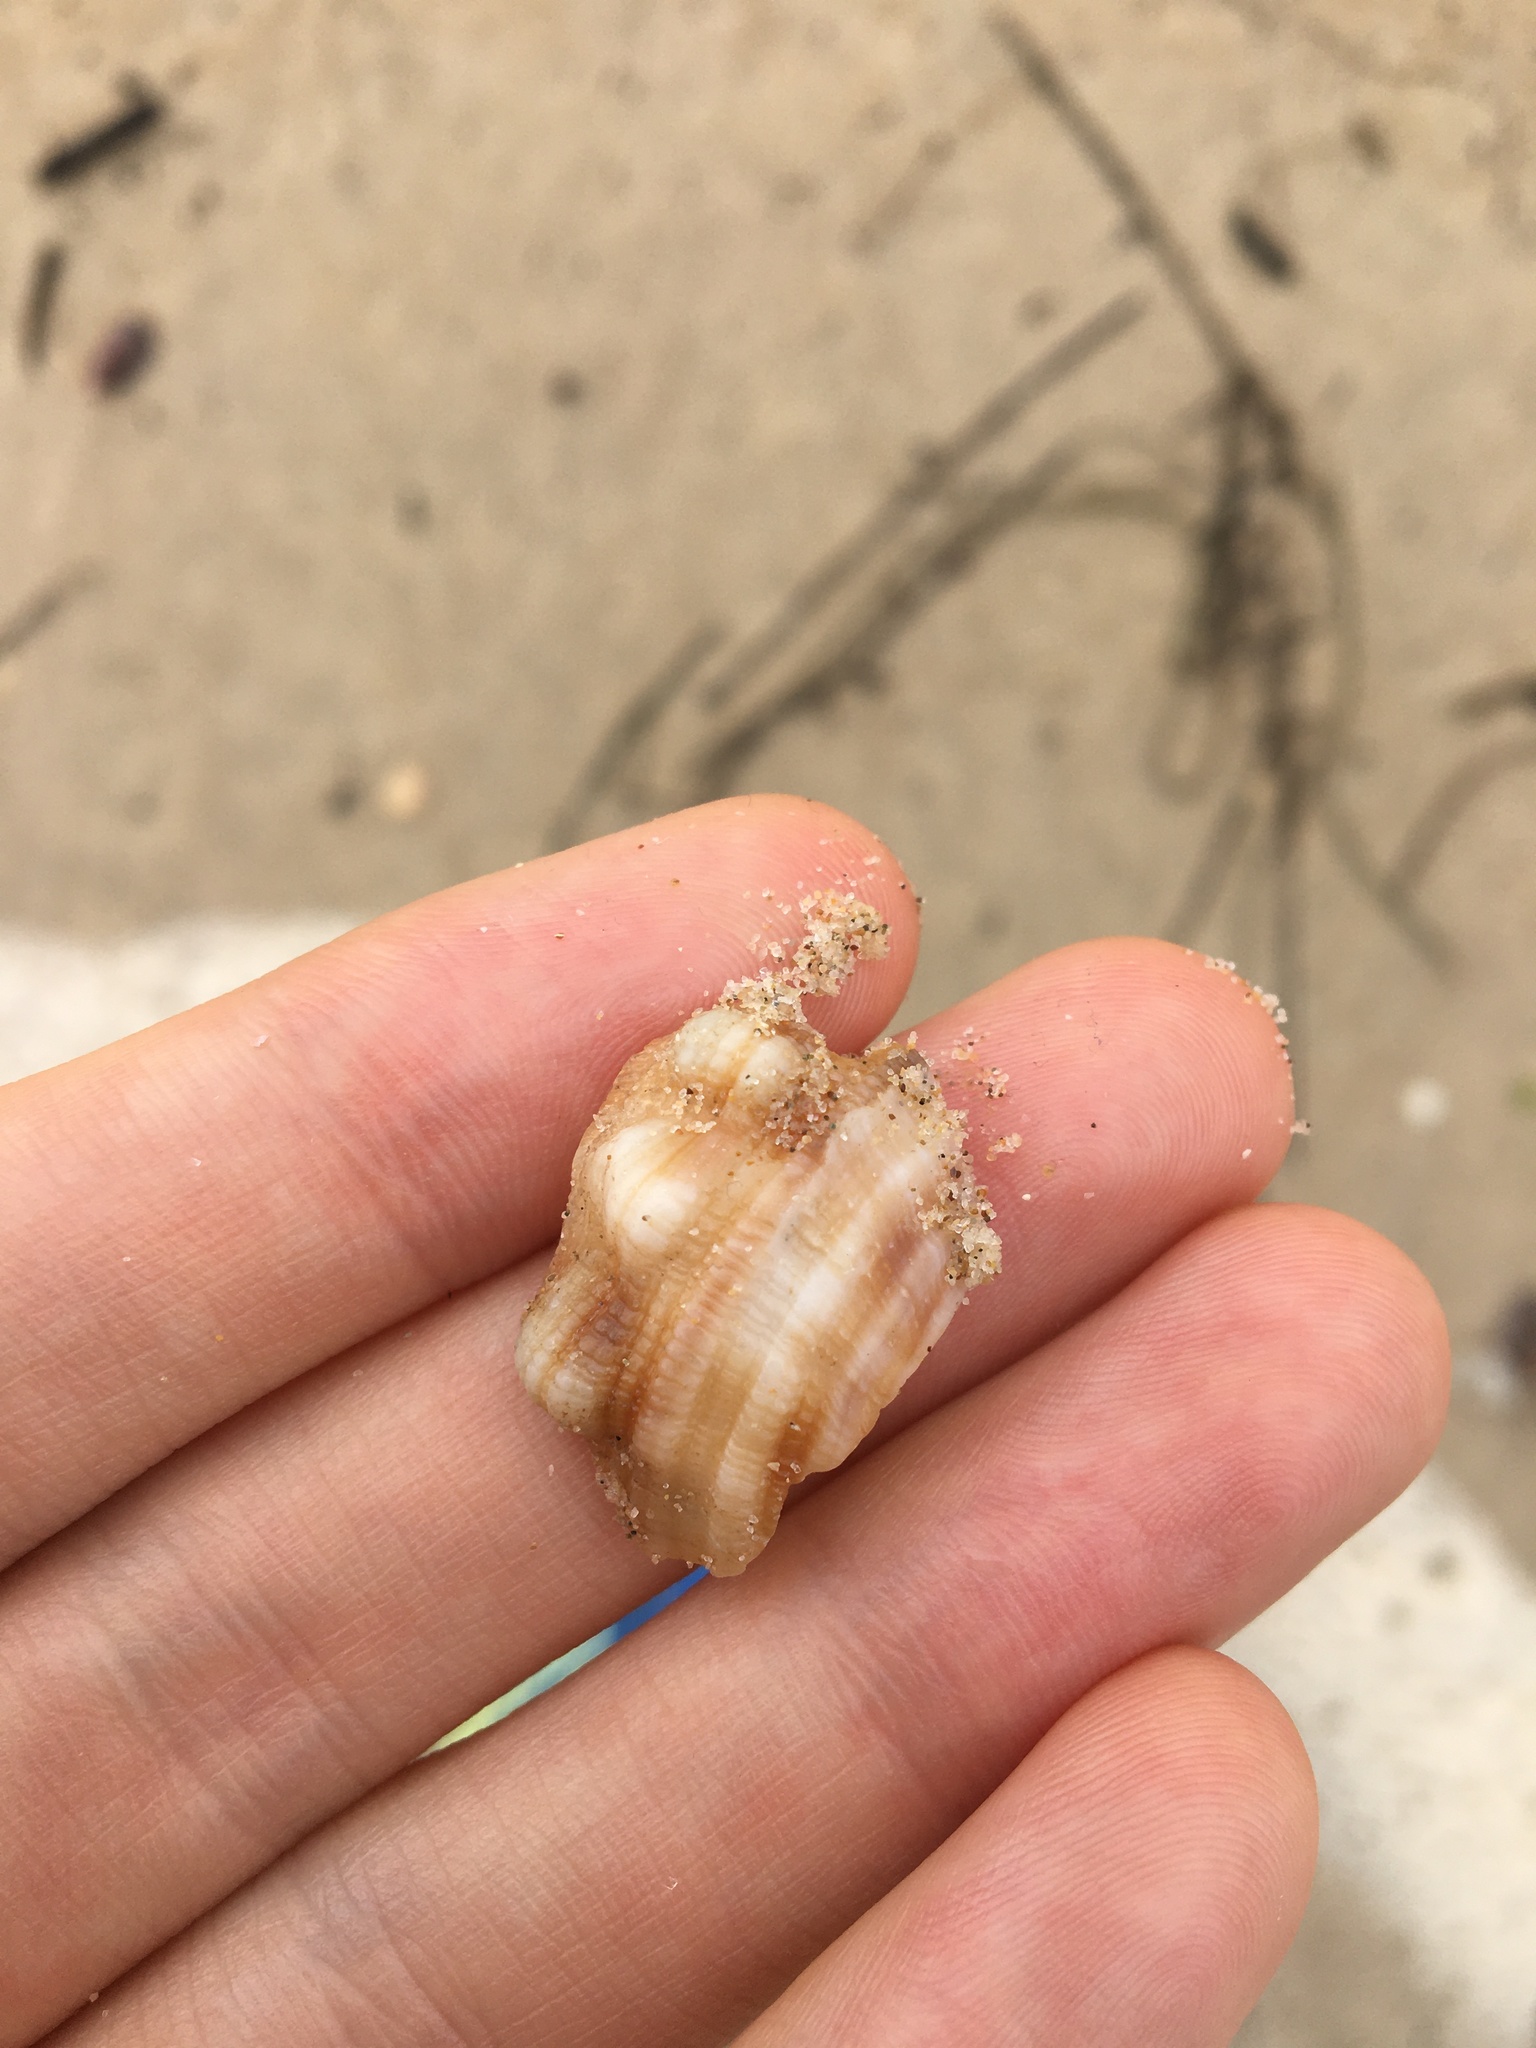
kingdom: Animalia
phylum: Mollusca
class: Gastropoda
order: Littorinimorpha
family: Cymatiidae
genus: Cabestana
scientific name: Cabestana spengleri
